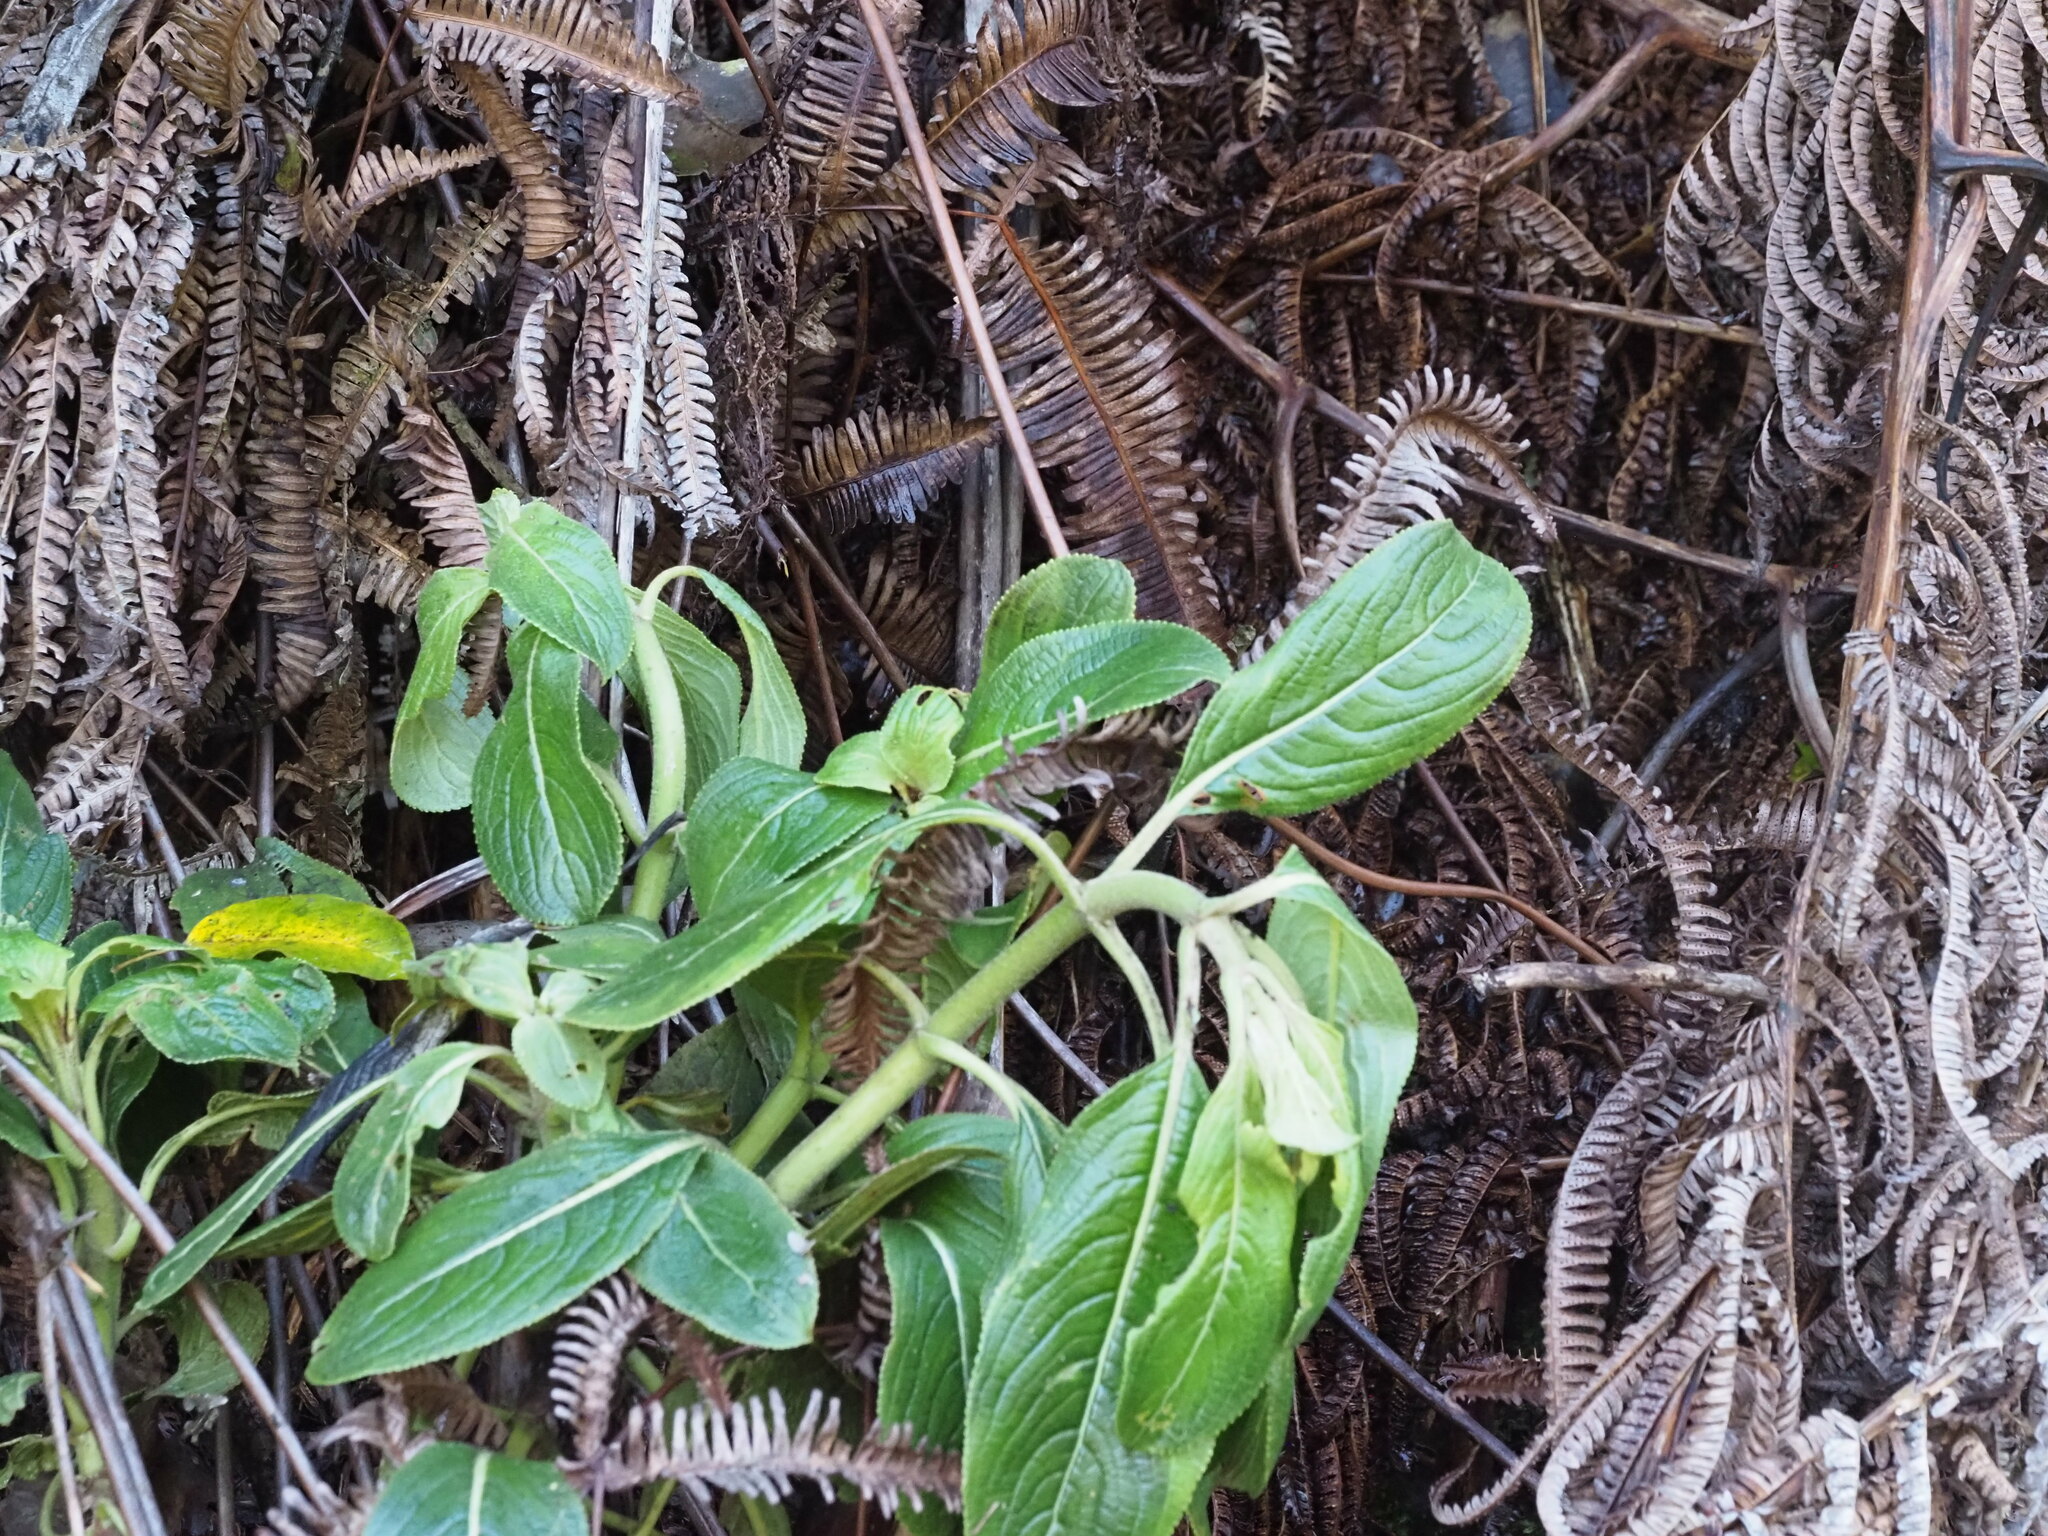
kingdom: Plantae
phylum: Tracheophyta
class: Magnoliopsida
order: Cornales
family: Hydrangeaceae
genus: Hydrangea
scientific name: Hydrangea arguta
